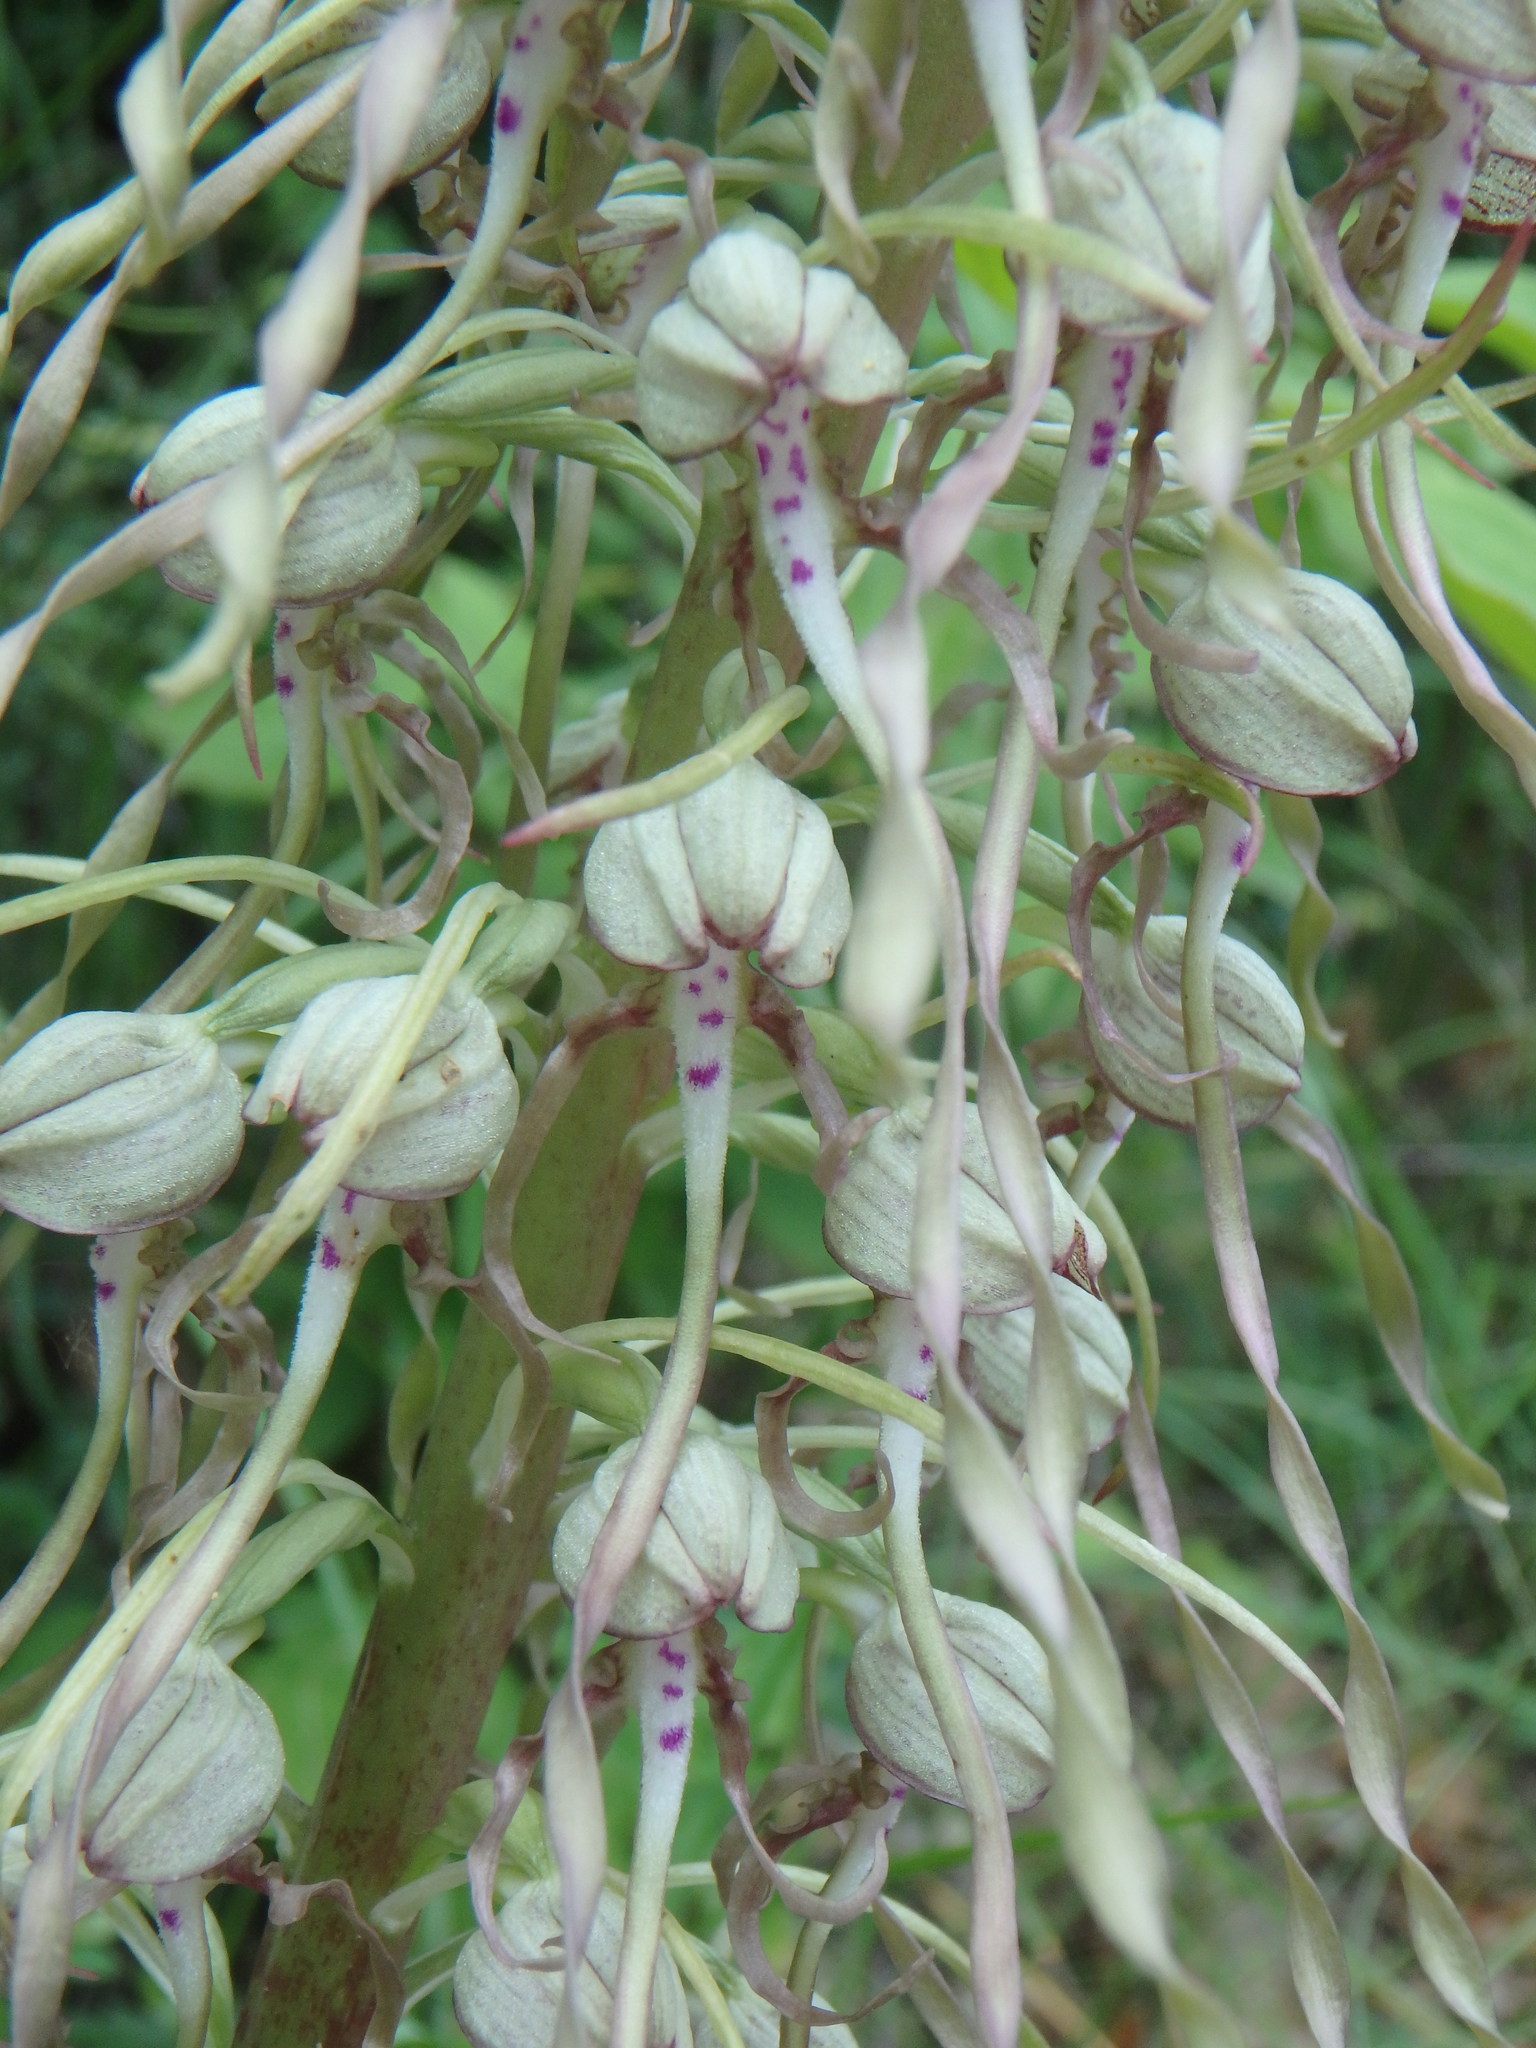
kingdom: Plantae
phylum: Tracheophyta
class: Liliopsida
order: Asparagales
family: Orchidaceae
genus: Himantoglossum
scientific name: Himantoglossum hircinum
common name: Lizard orchid
